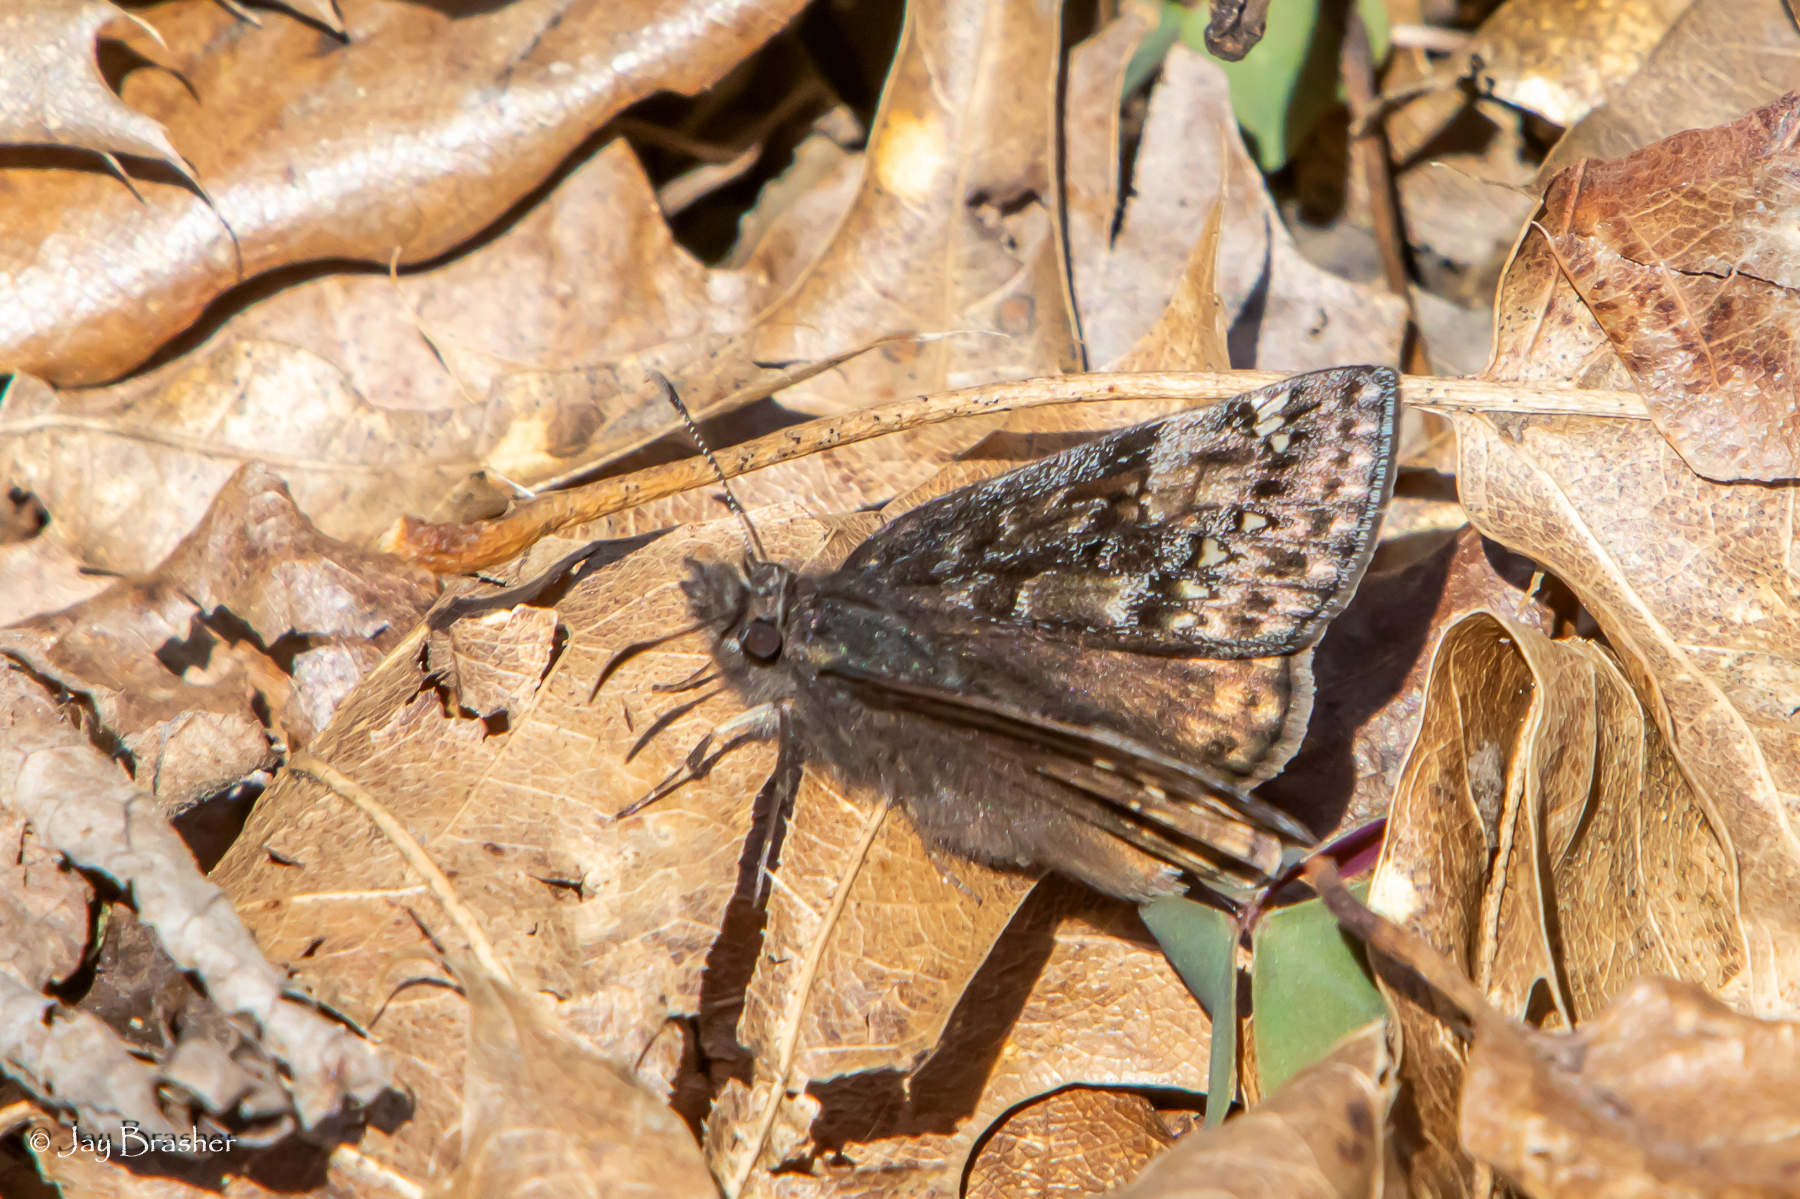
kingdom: Animalia
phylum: Arthropoda
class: Insecta
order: Lepidoptera
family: Hesperiidae
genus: Erynnis
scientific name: Erynnis juvenalis
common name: Juvenal's duskywing
